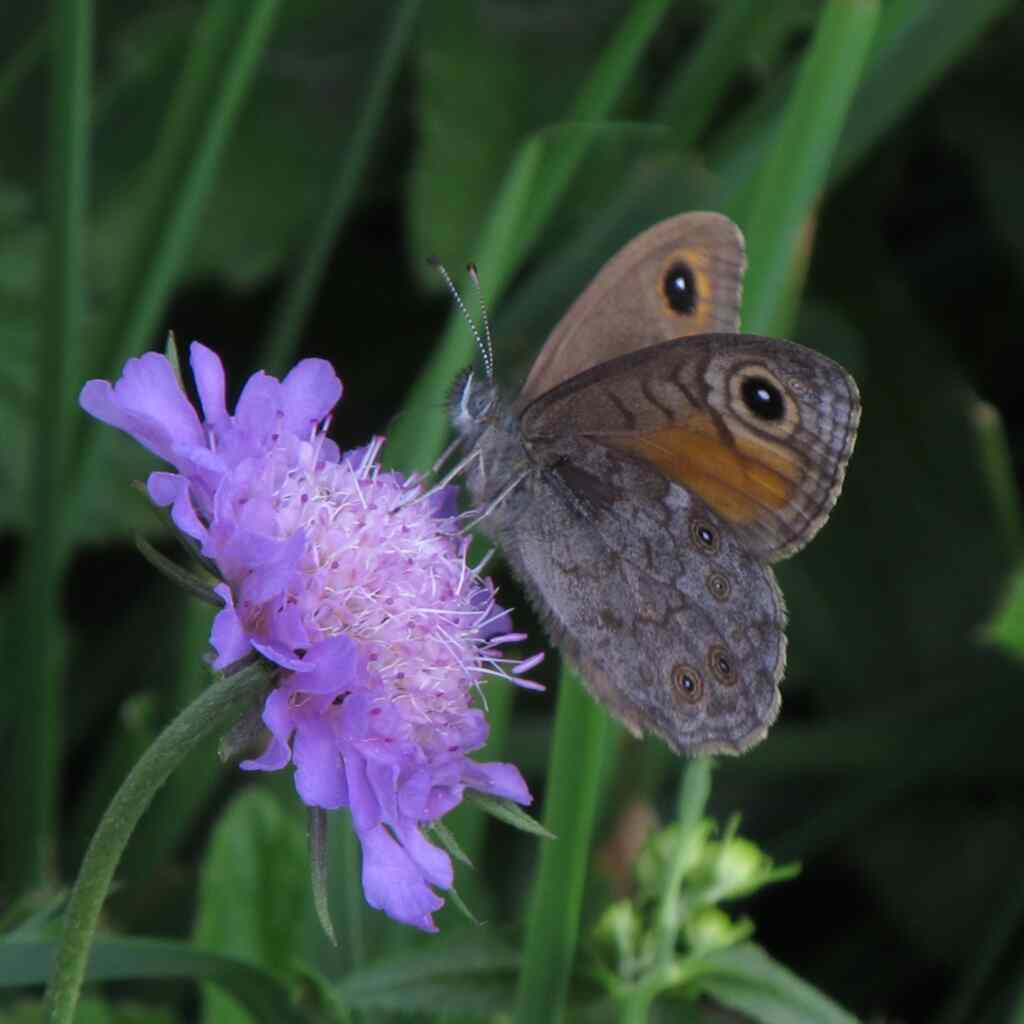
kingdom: Animalia
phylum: Arthropoda
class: Insecta
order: Lepidoptera
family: Nymphalidae
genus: Pararge
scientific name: Pararge Lasiommata maera
